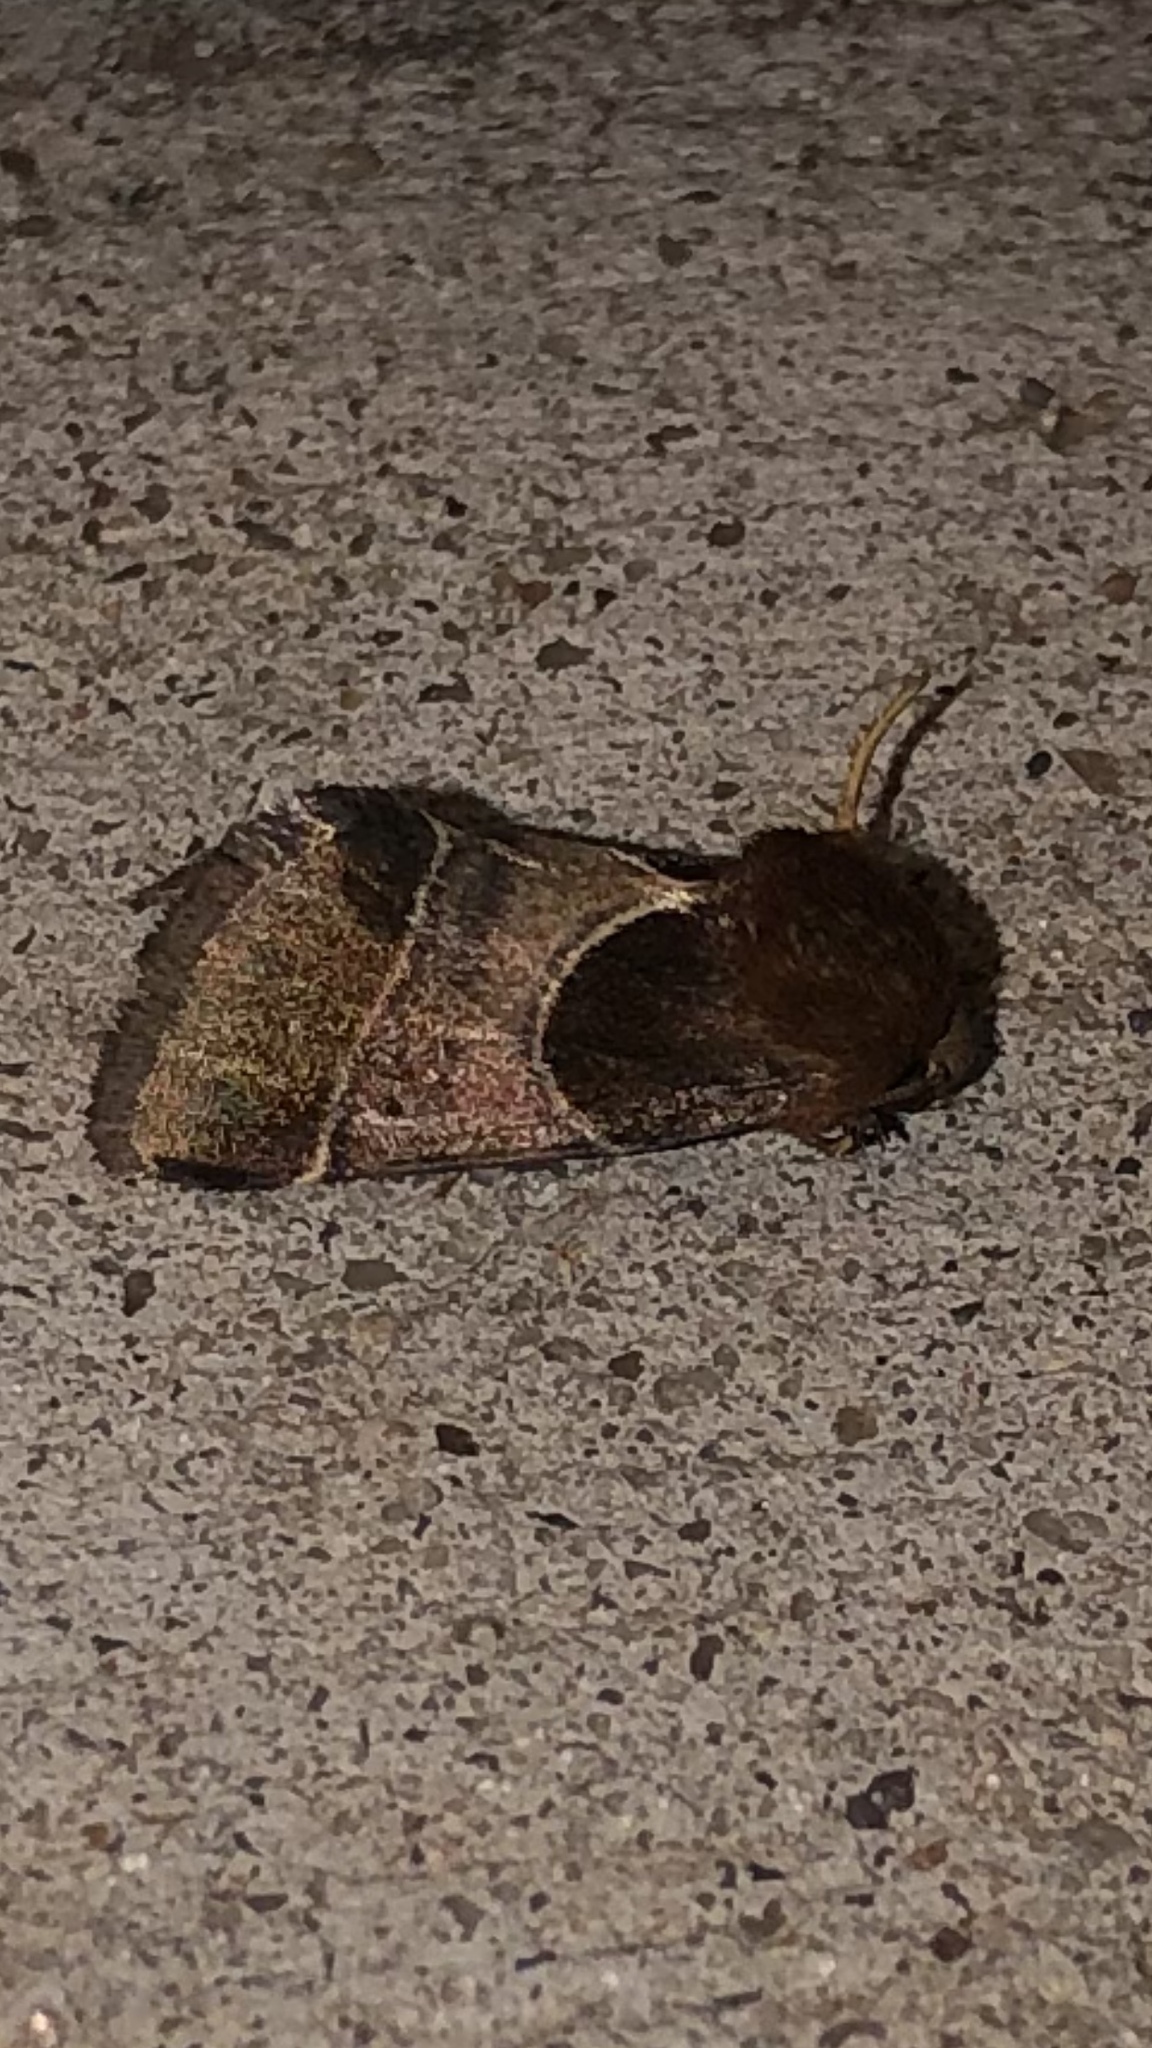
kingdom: Animalia
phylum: Arthropoda
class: Insecta
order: Lepidoptera
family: Noctuidae
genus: Schinia
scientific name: Schinia arcigera
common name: Arcigera flower moth
